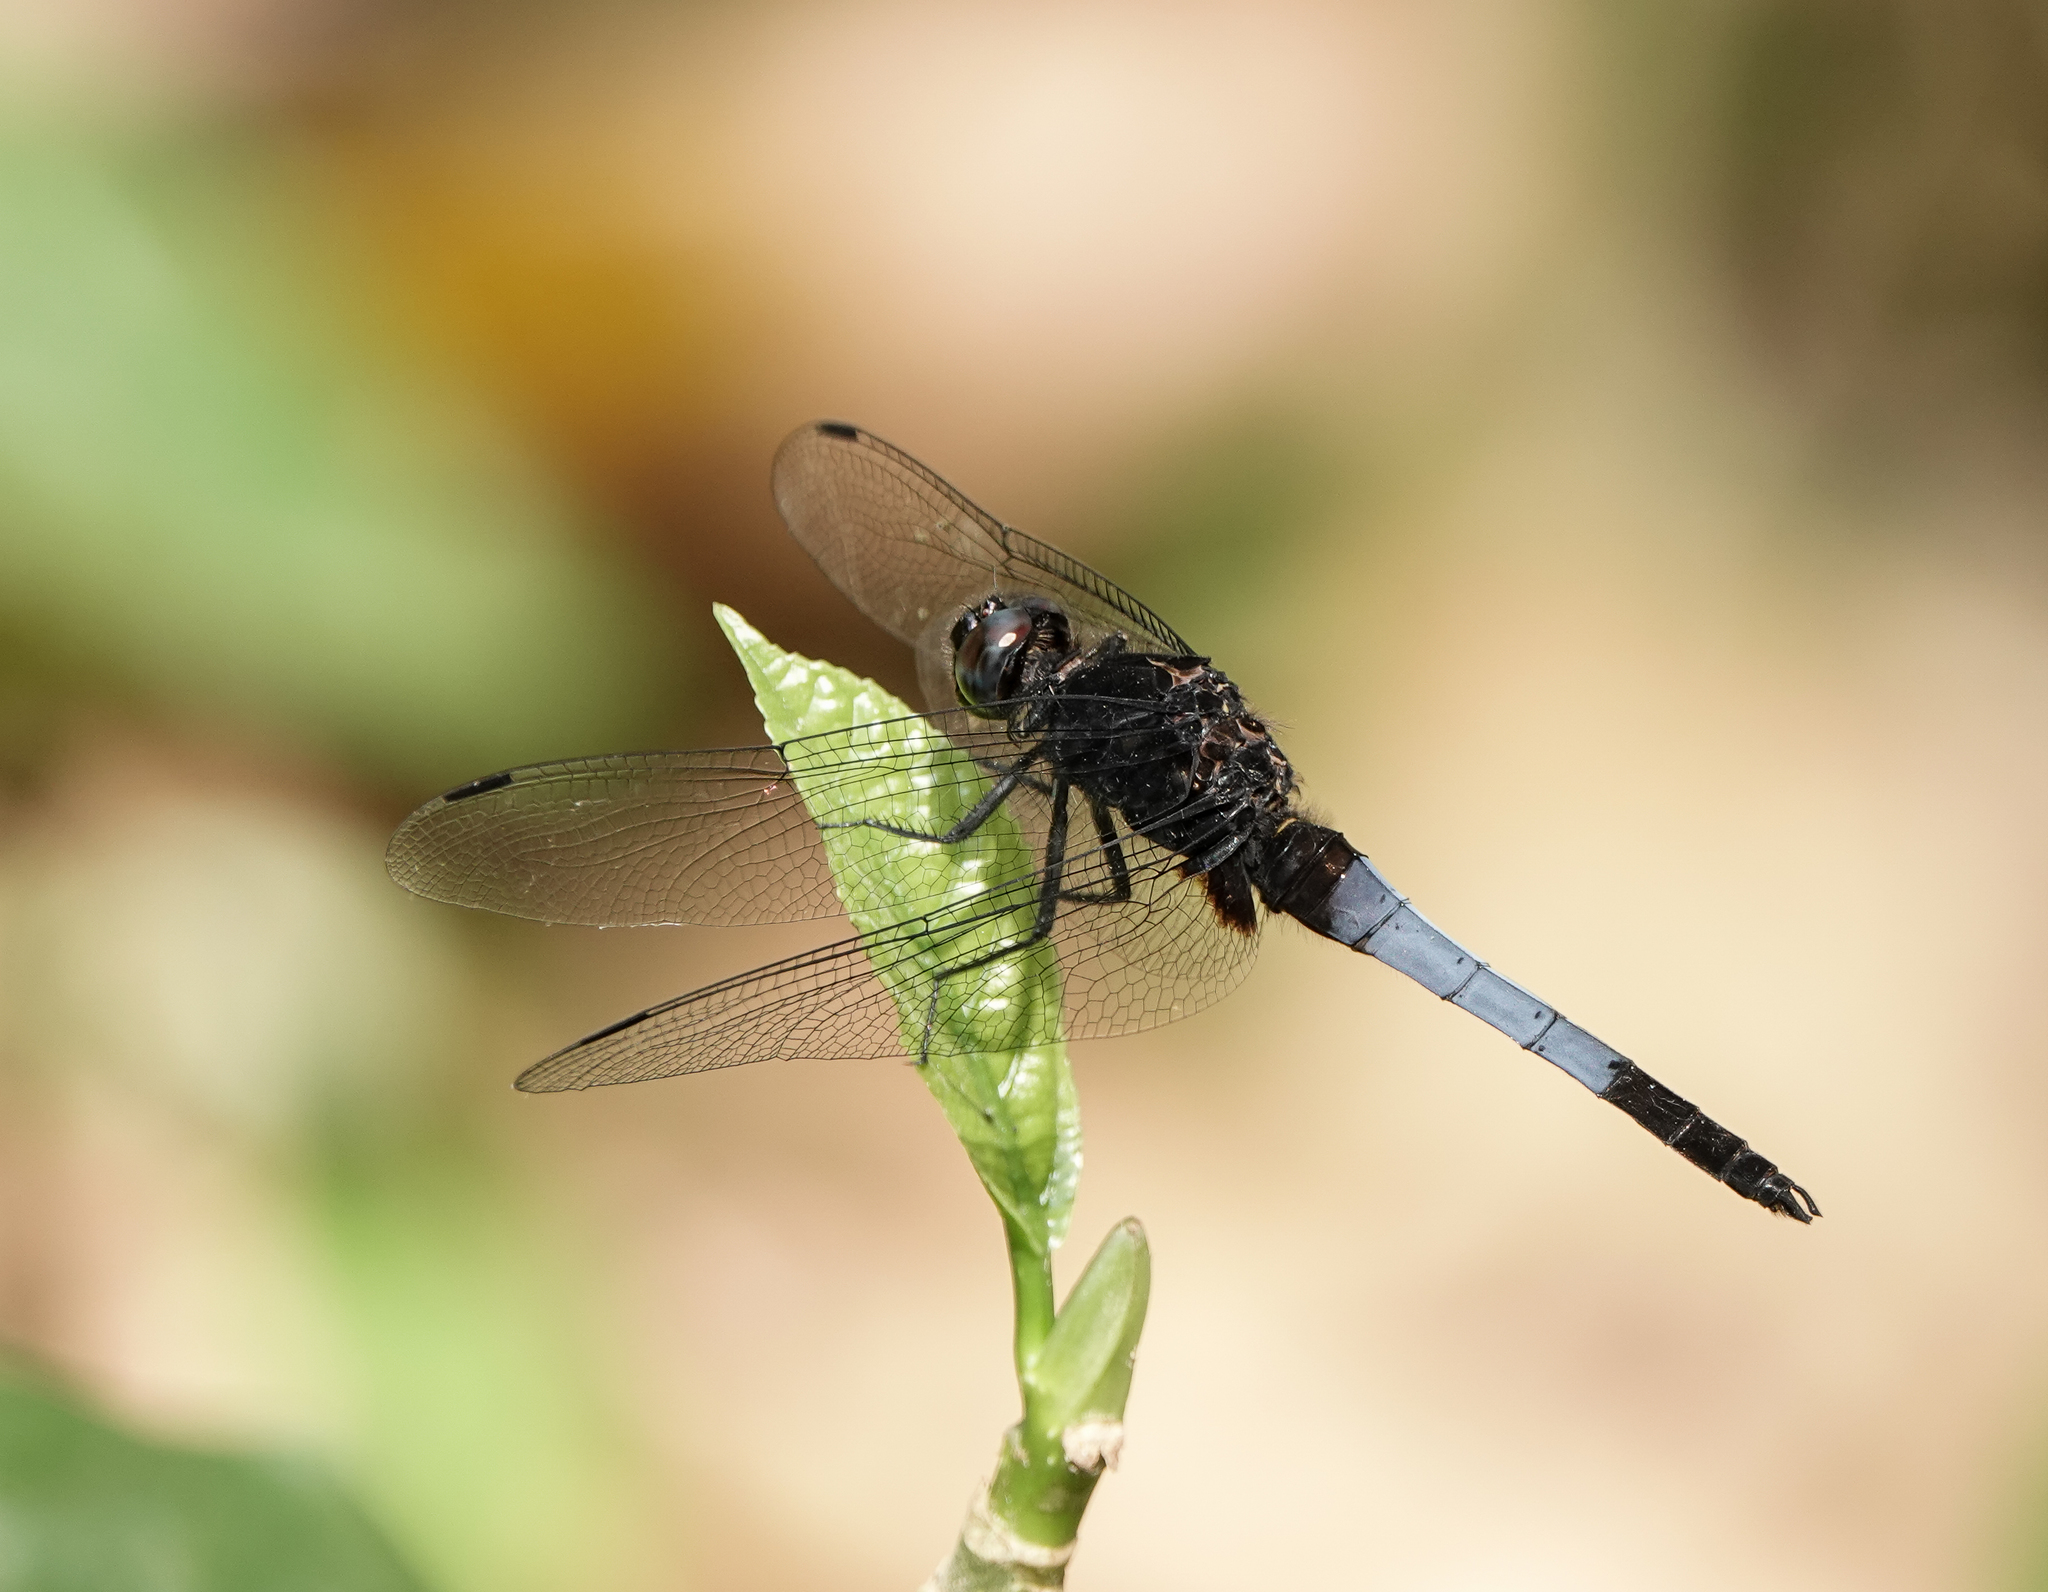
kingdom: Animalia
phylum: Arthropoda
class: Insecta
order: Odonata
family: Libellulidae
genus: Orthetrum
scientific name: Orthetrum triangulare
